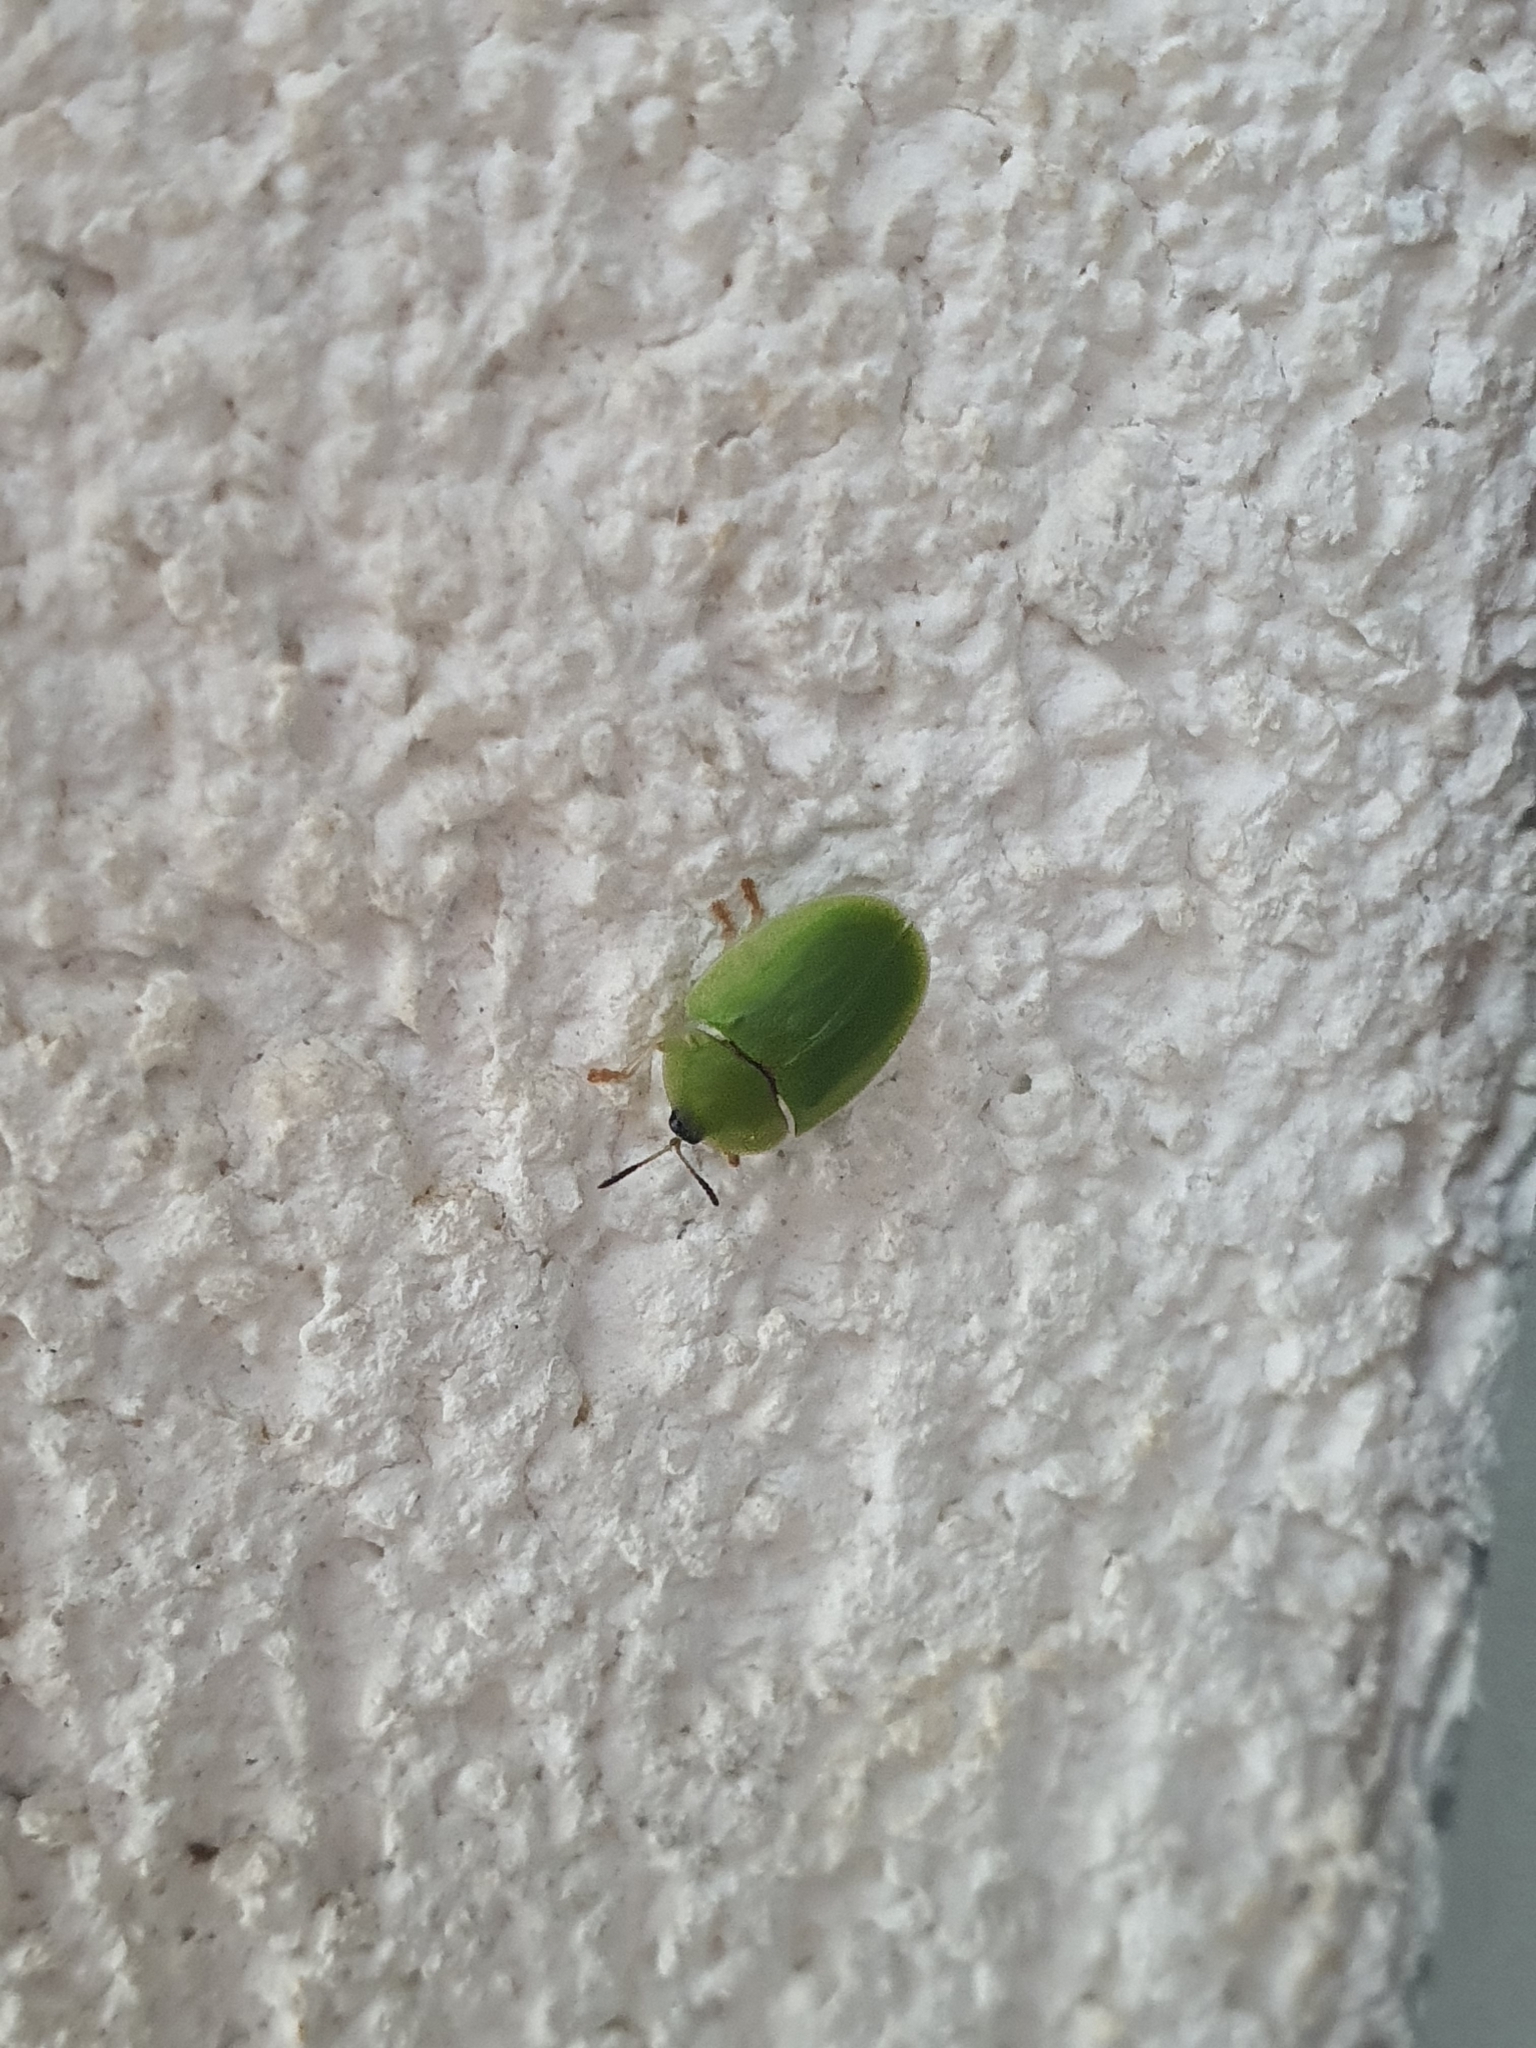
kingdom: Animalia
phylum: Arthropoda
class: Insecta
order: Coleoptera
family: Chrysomelidae
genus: Cassida
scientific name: Cassida viridis
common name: Green tortoise beetle
